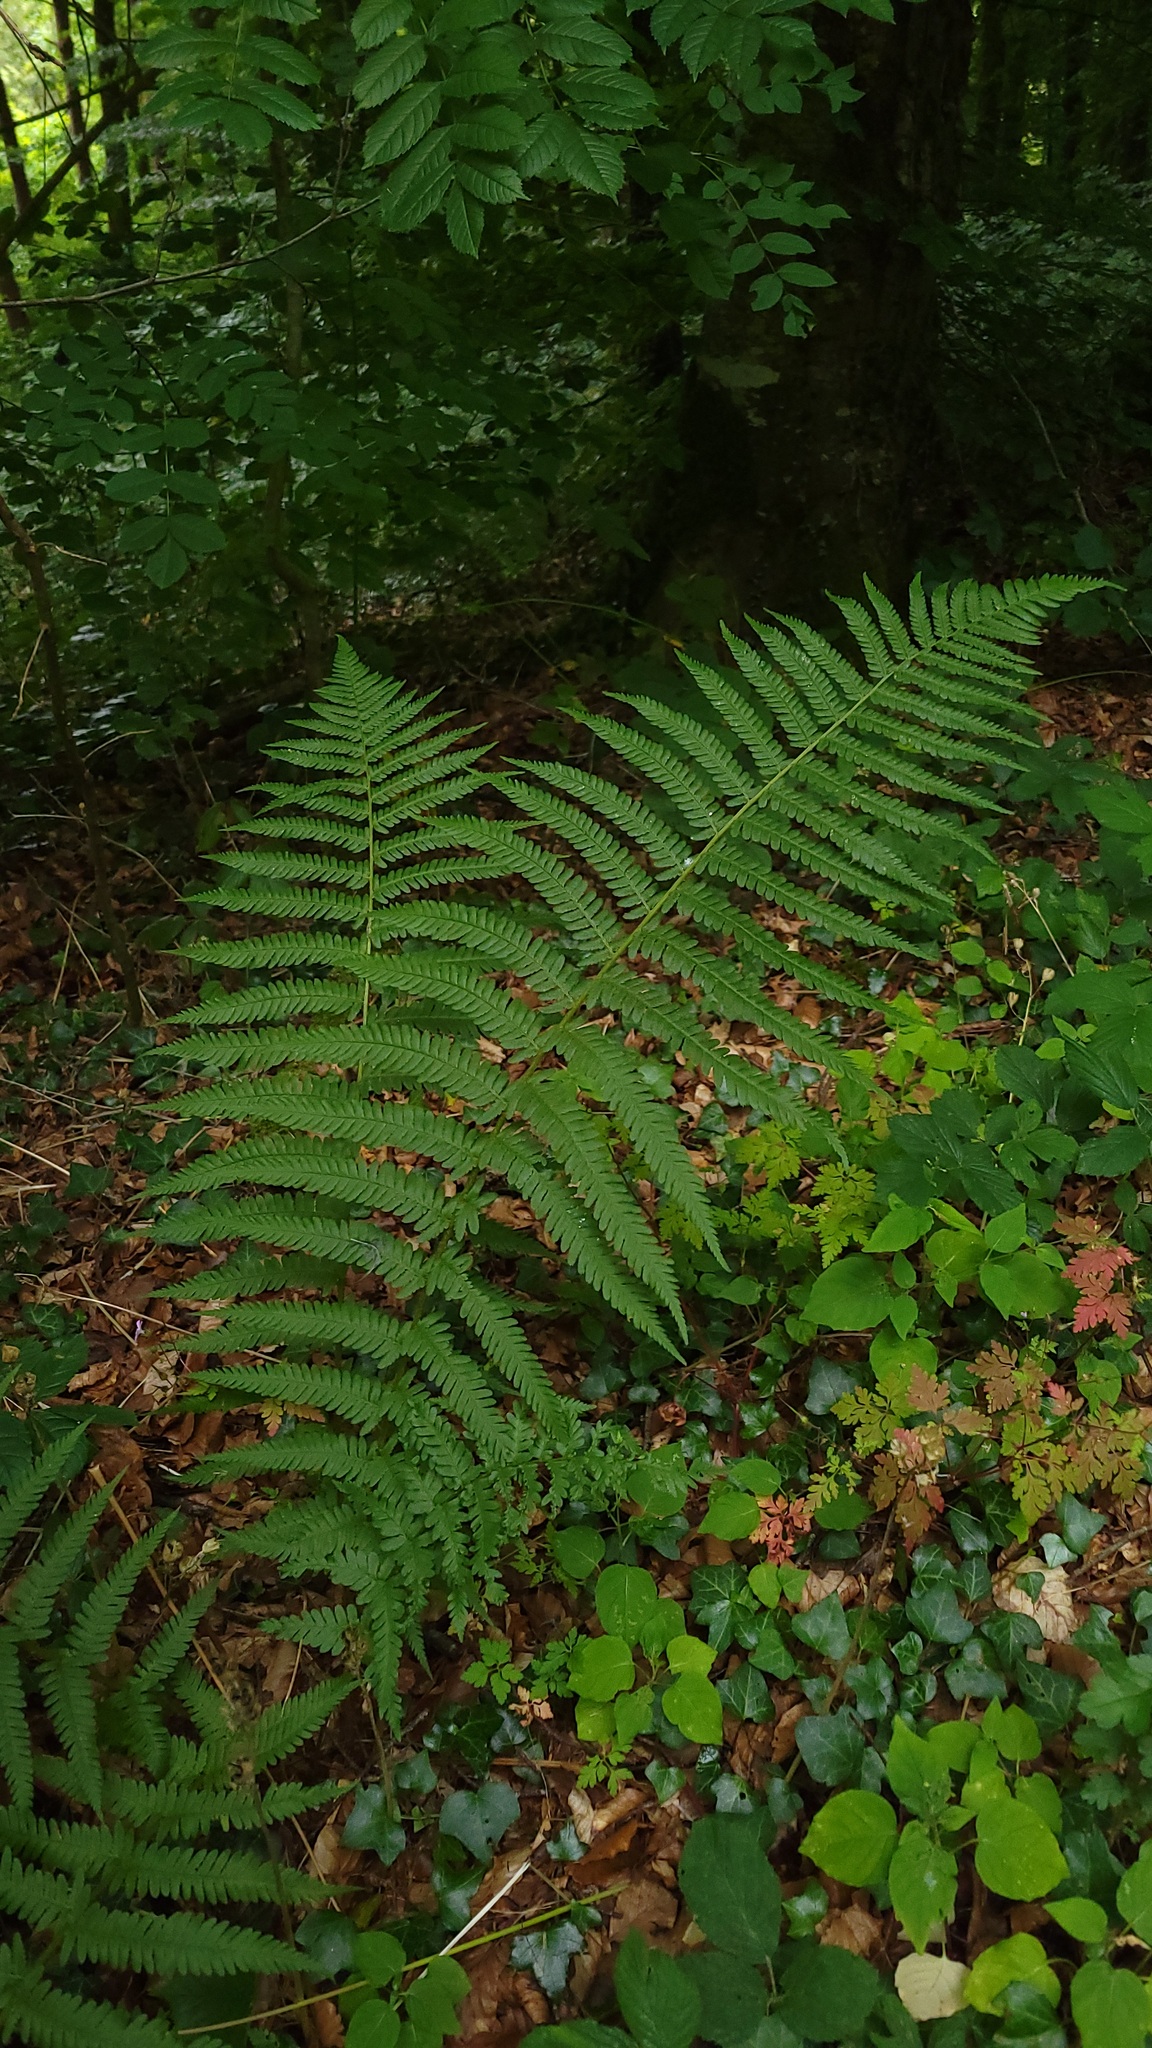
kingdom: Plantae
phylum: Tracheophyta
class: Polypodiopsida
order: Polypodiales
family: Dryopteridaceae
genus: Dryopteris
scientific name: Dryopteris filix-mas
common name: Male fern
